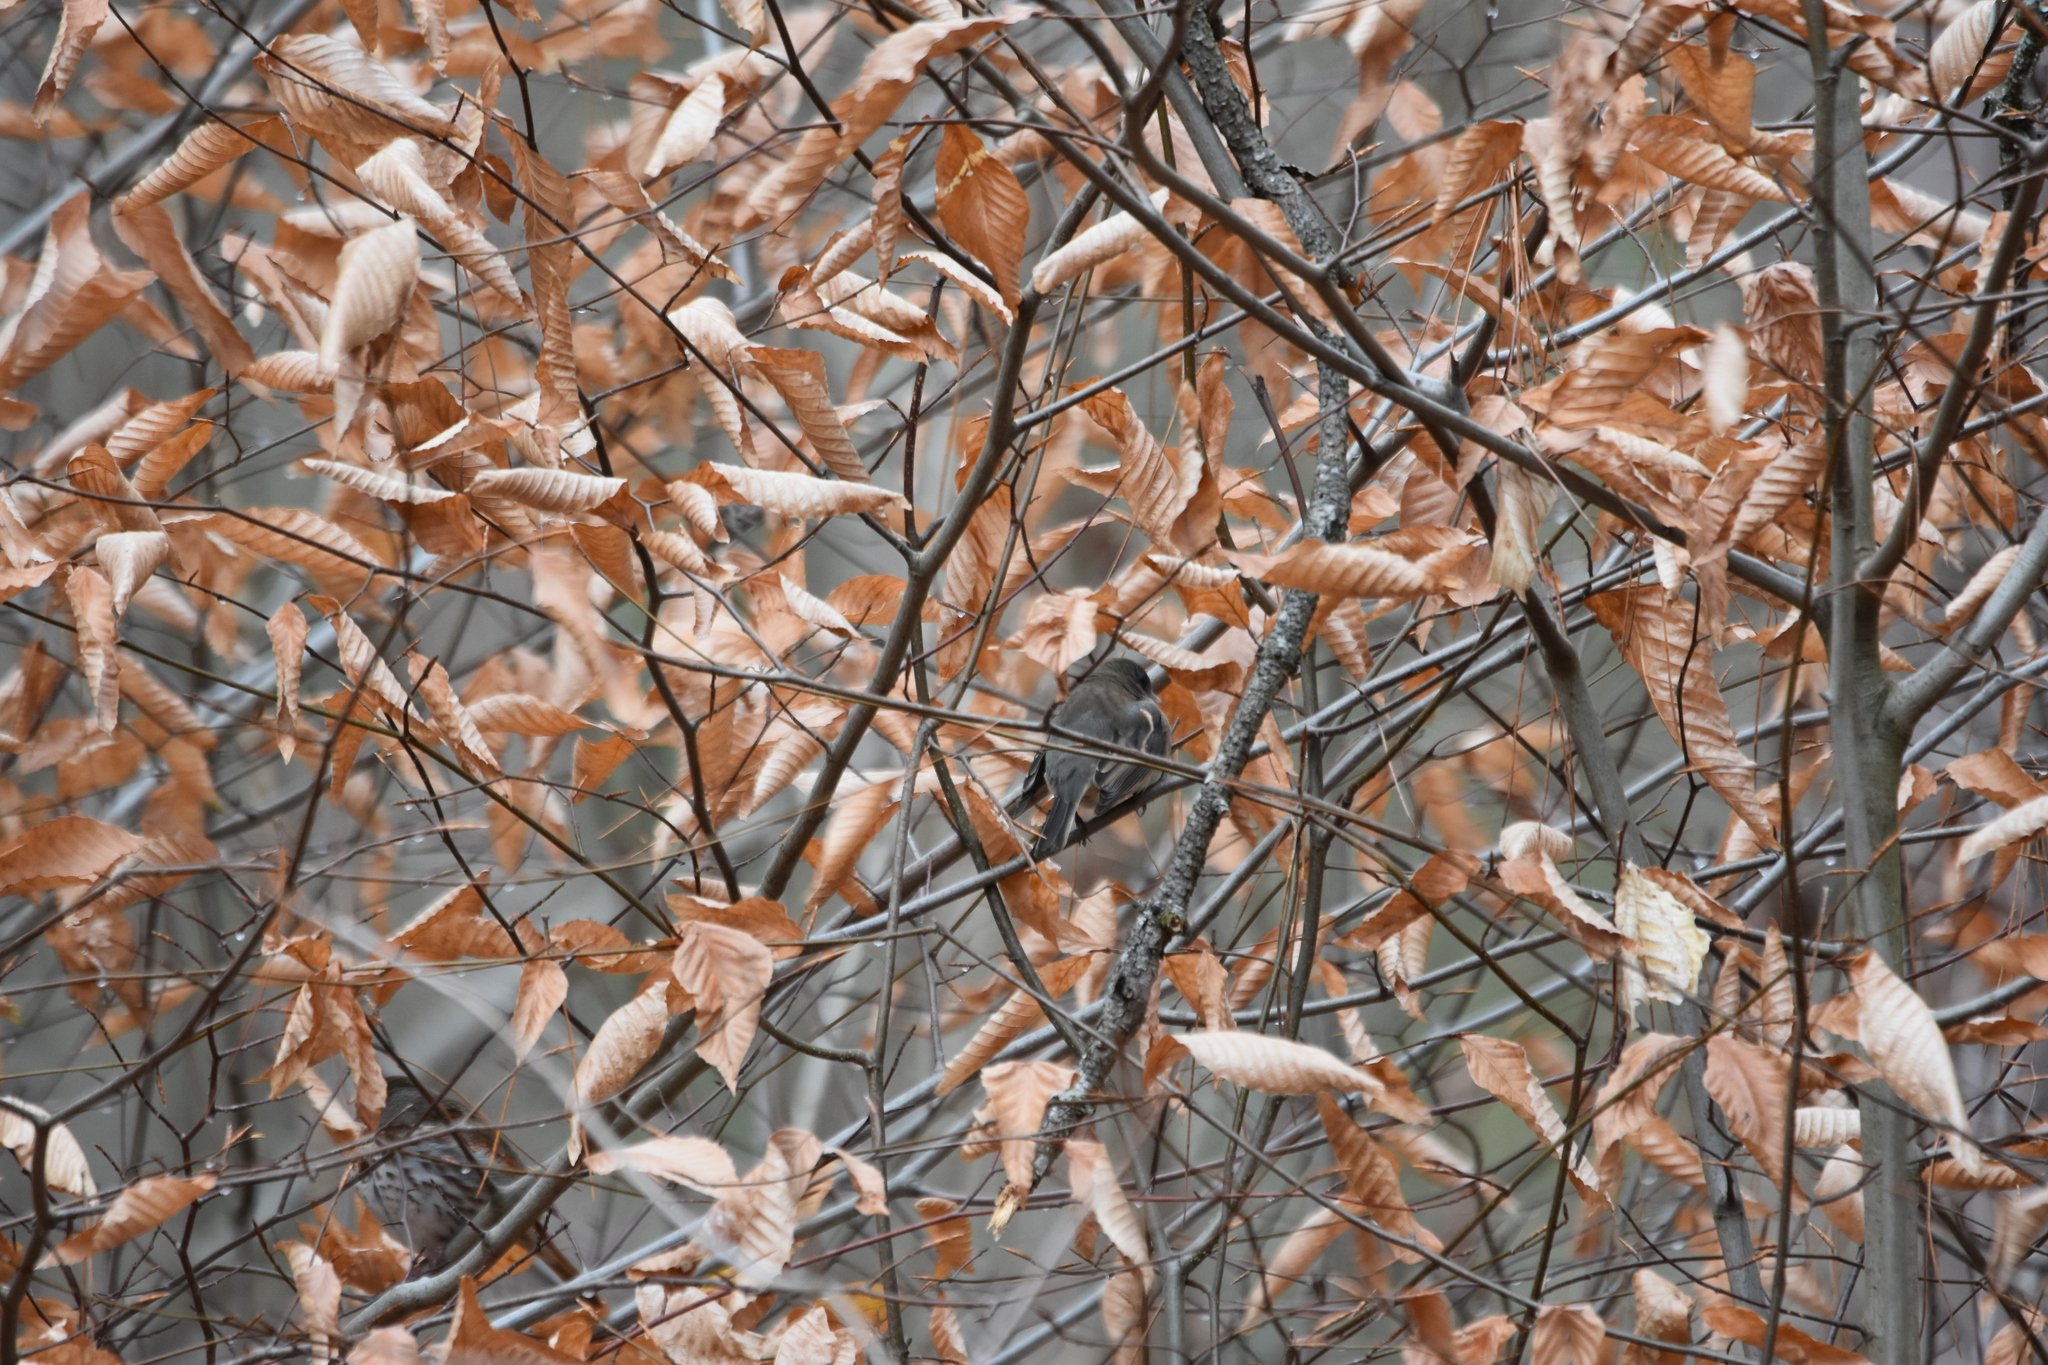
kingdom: Animalia
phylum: Chordata
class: Aves
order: Passeriformes
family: Passerellidae
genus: Junco
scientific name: Junco hyemalis
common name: Dark-eyed junco
